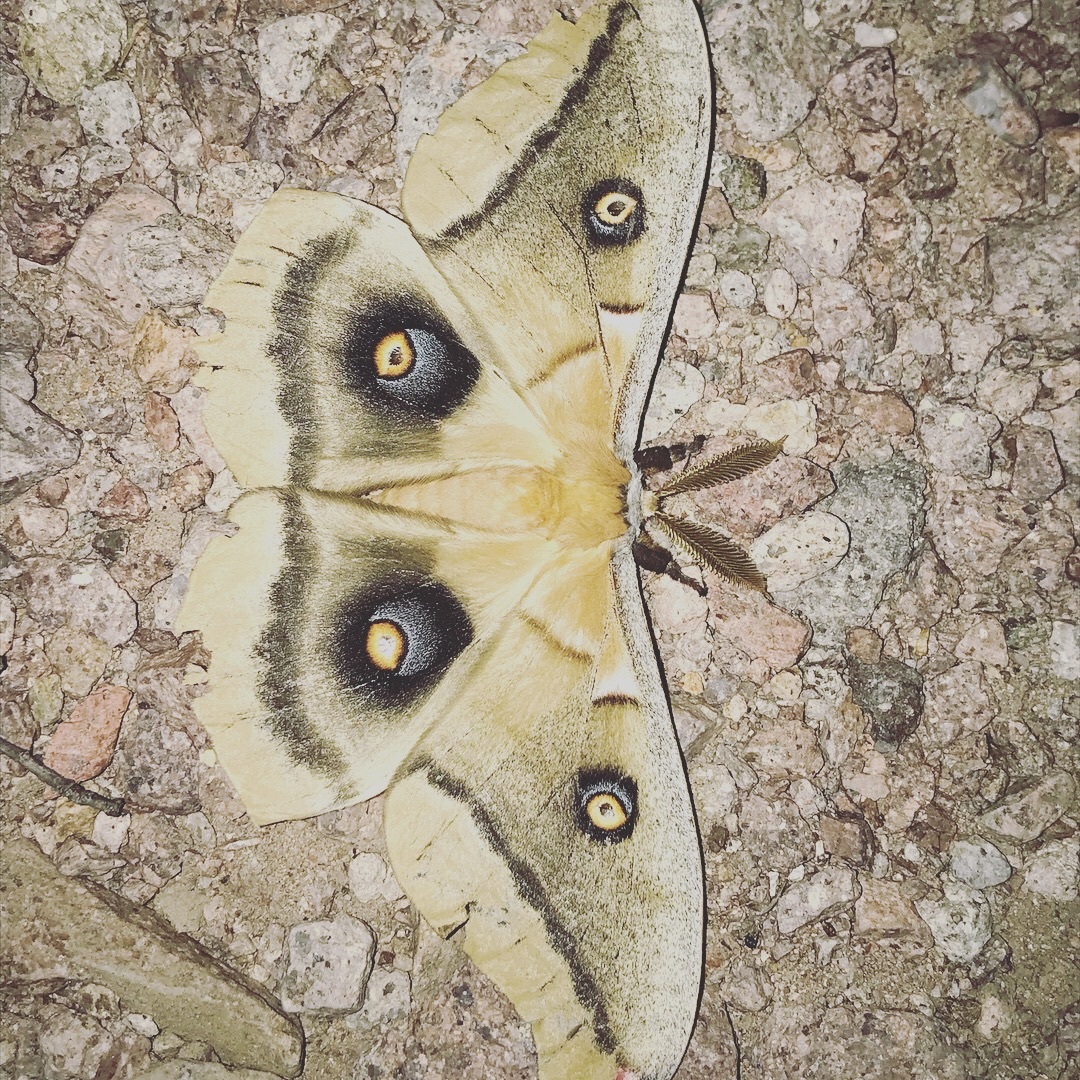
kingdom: Animalia
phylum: Arthropoda
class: Insecta
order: Lepidoptera
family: Saturniidae
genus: Antheraea
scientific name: Antheraea oculea
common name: Arizona polyphemus moth
